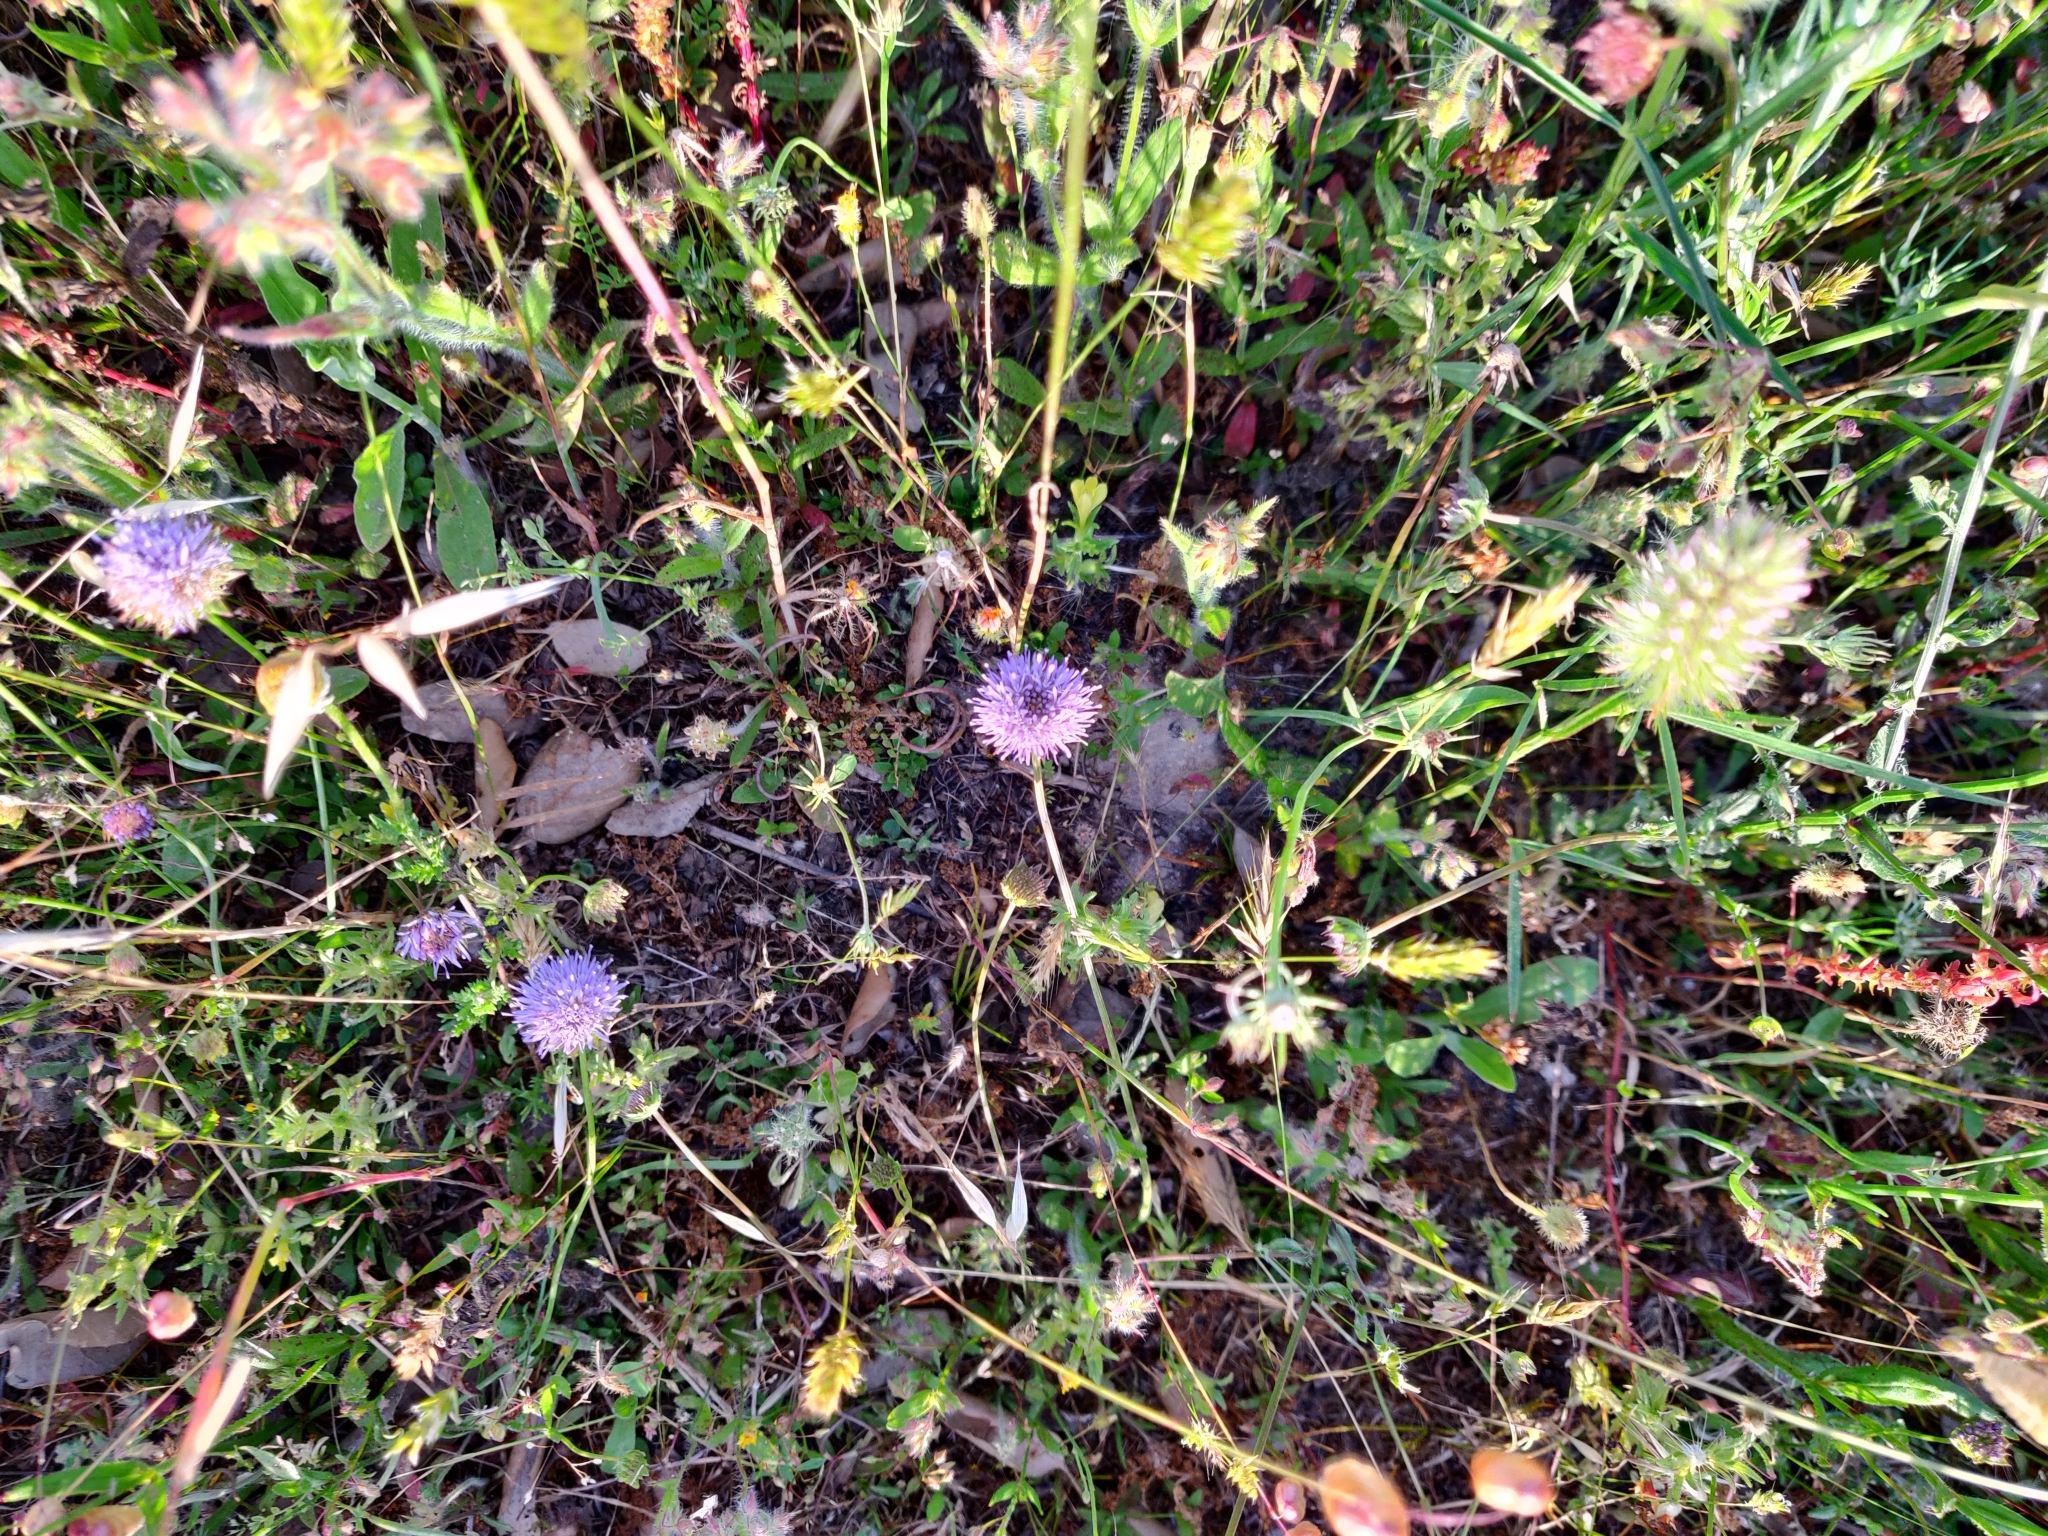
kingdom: Plantae
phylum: Tracheophyta
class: Magnoliopsida
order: Asterales
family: Campanulaceae
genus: Jasione
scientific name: Jasione montana
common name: Sheep's-bit
